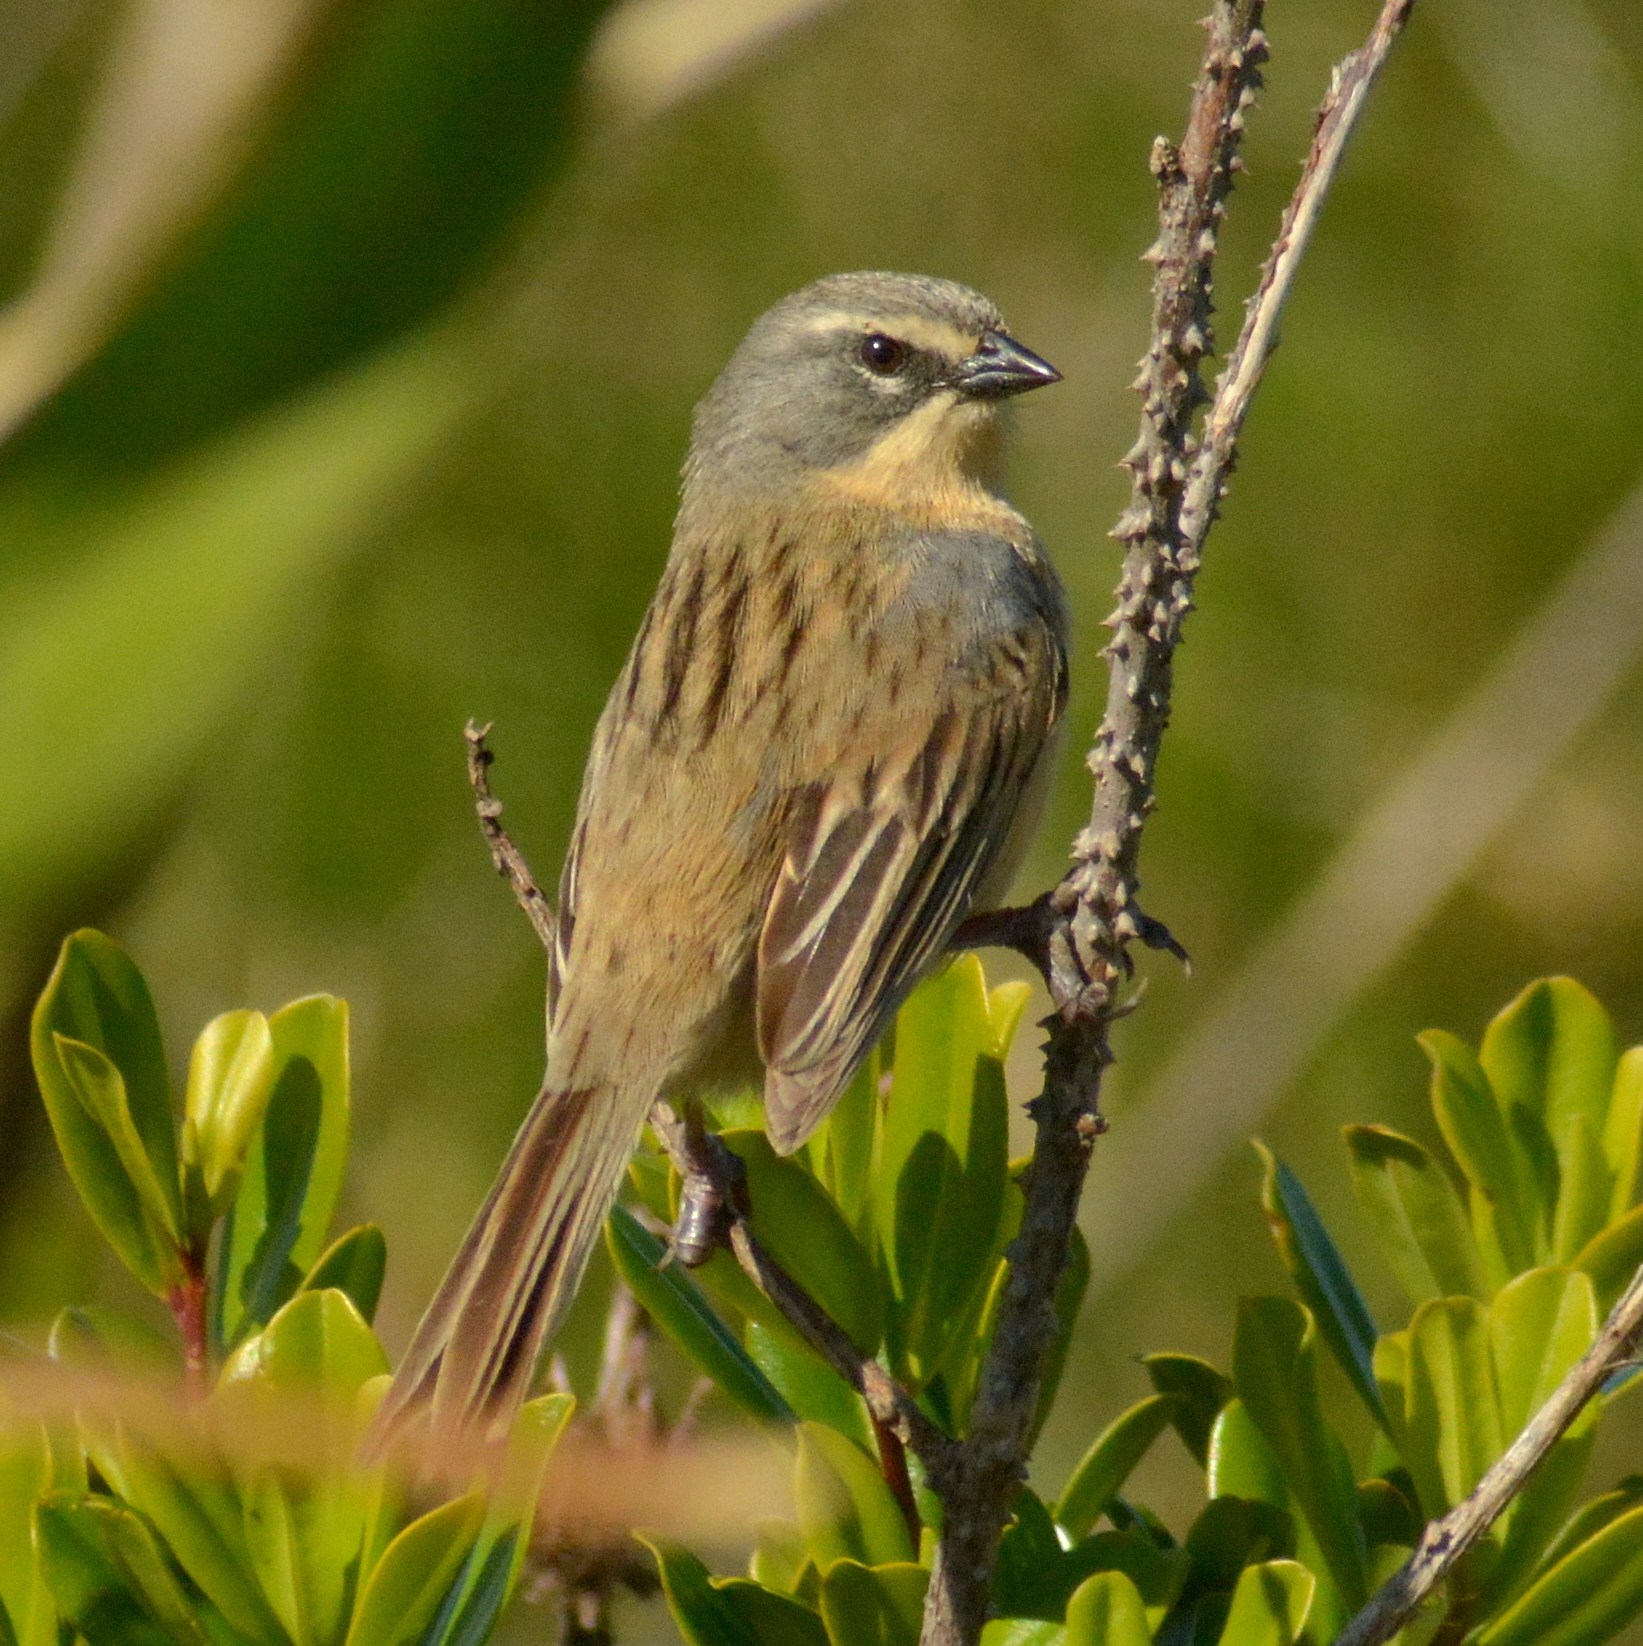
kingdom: Animalia
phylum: Chordata
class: Aves
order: Passeriformes
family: Thraupidae
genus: Donacospiza
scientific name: Donacospiza albifrons
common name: Long-tailed reed finch
